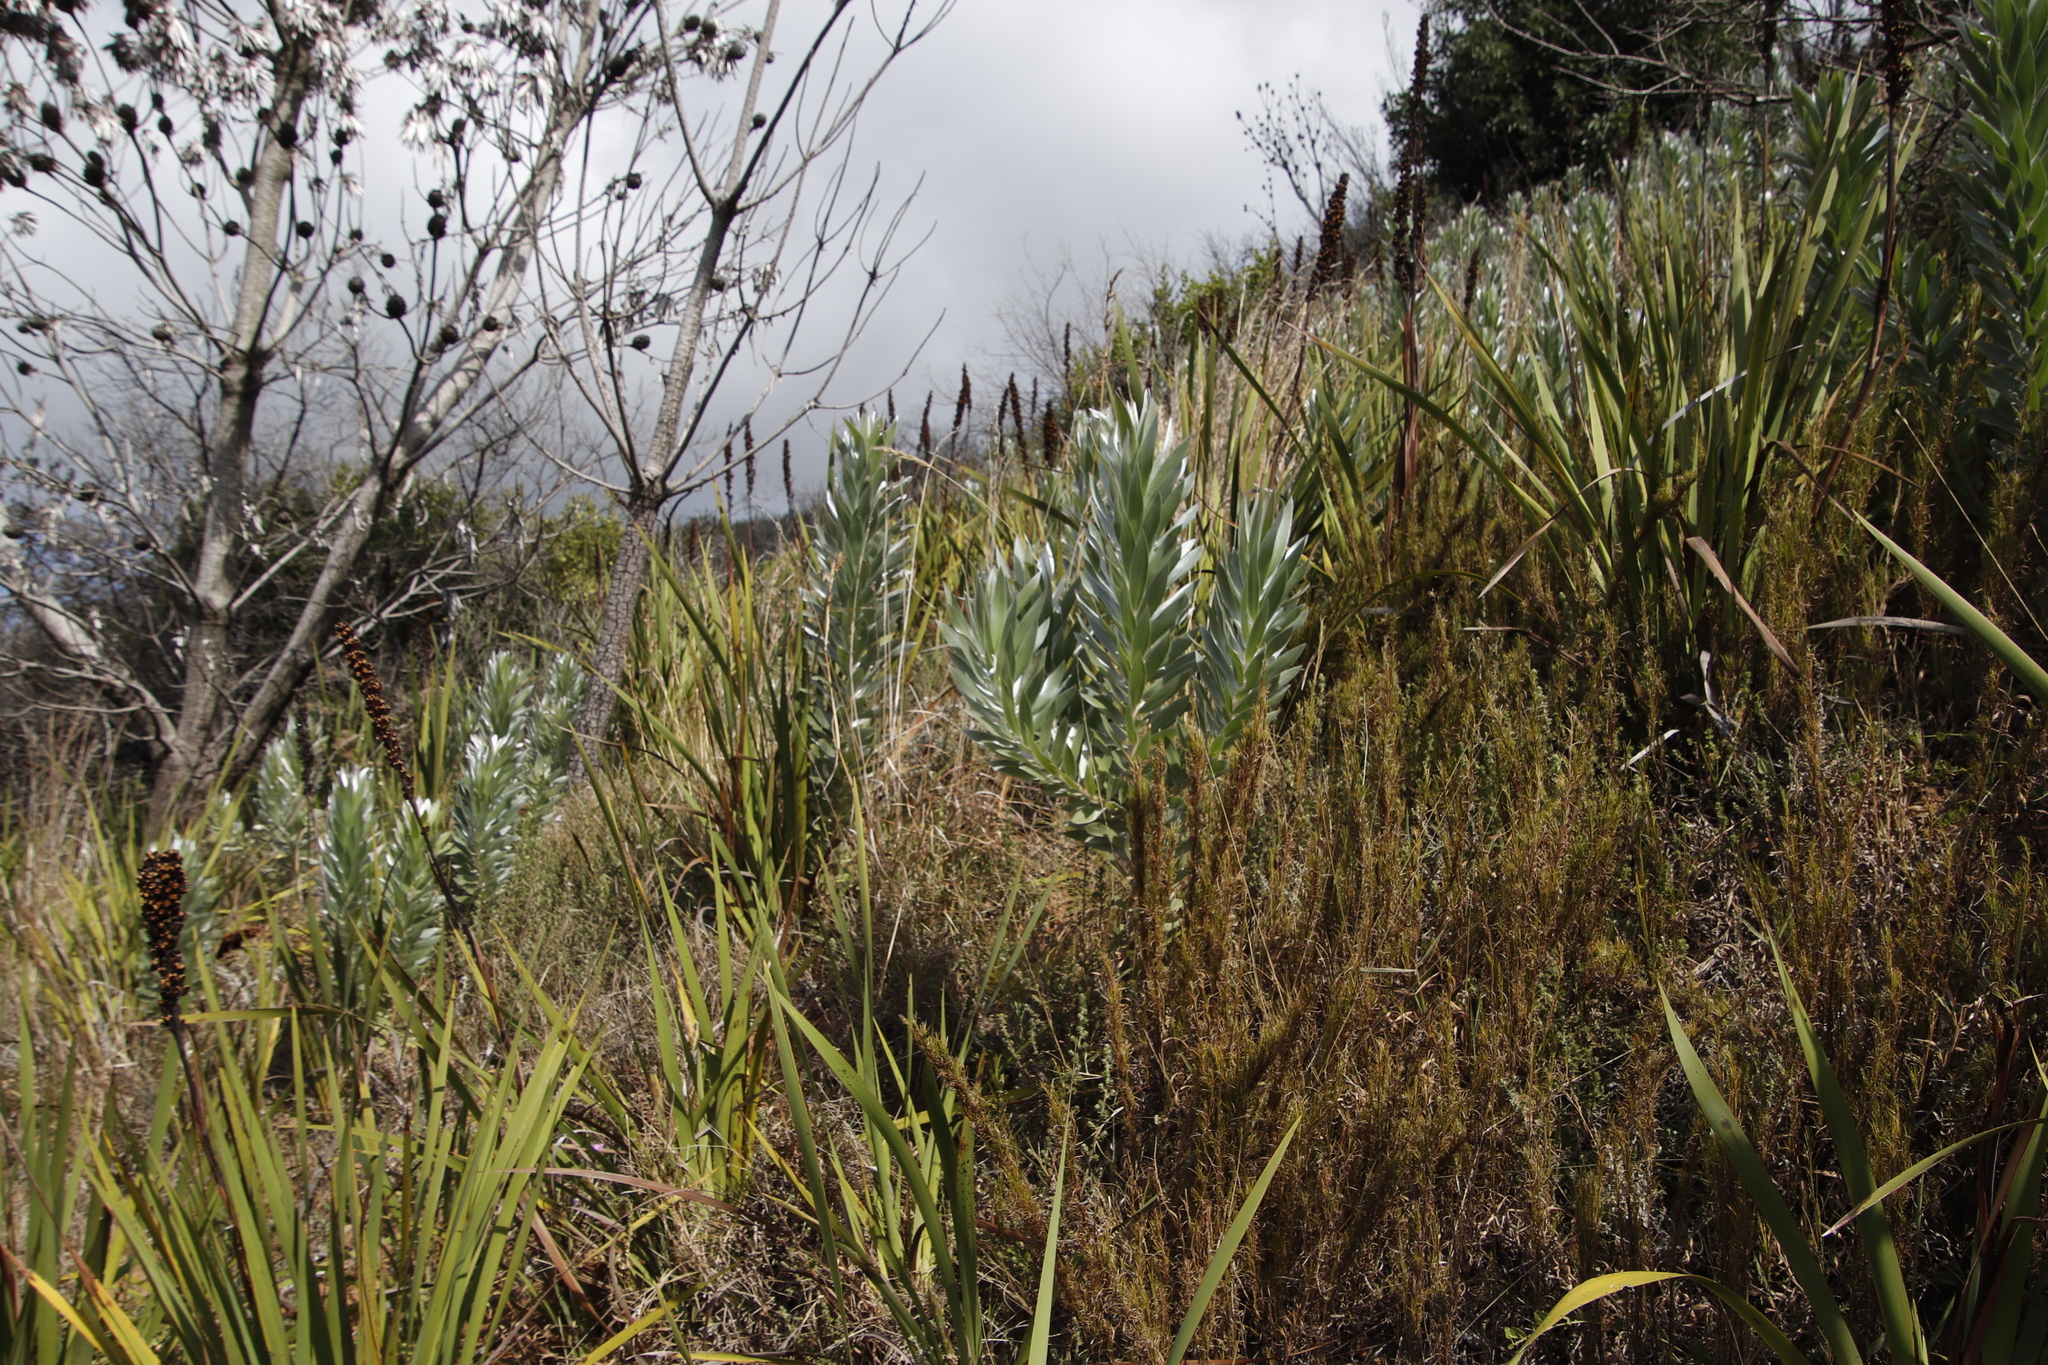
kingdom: Plantae
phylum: Tracheophyta
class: Magnoliopsida
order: Proteales
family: Proteaceae
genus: Leucadendron
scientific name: Leucadendron argenteum
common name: Cape silver tree
